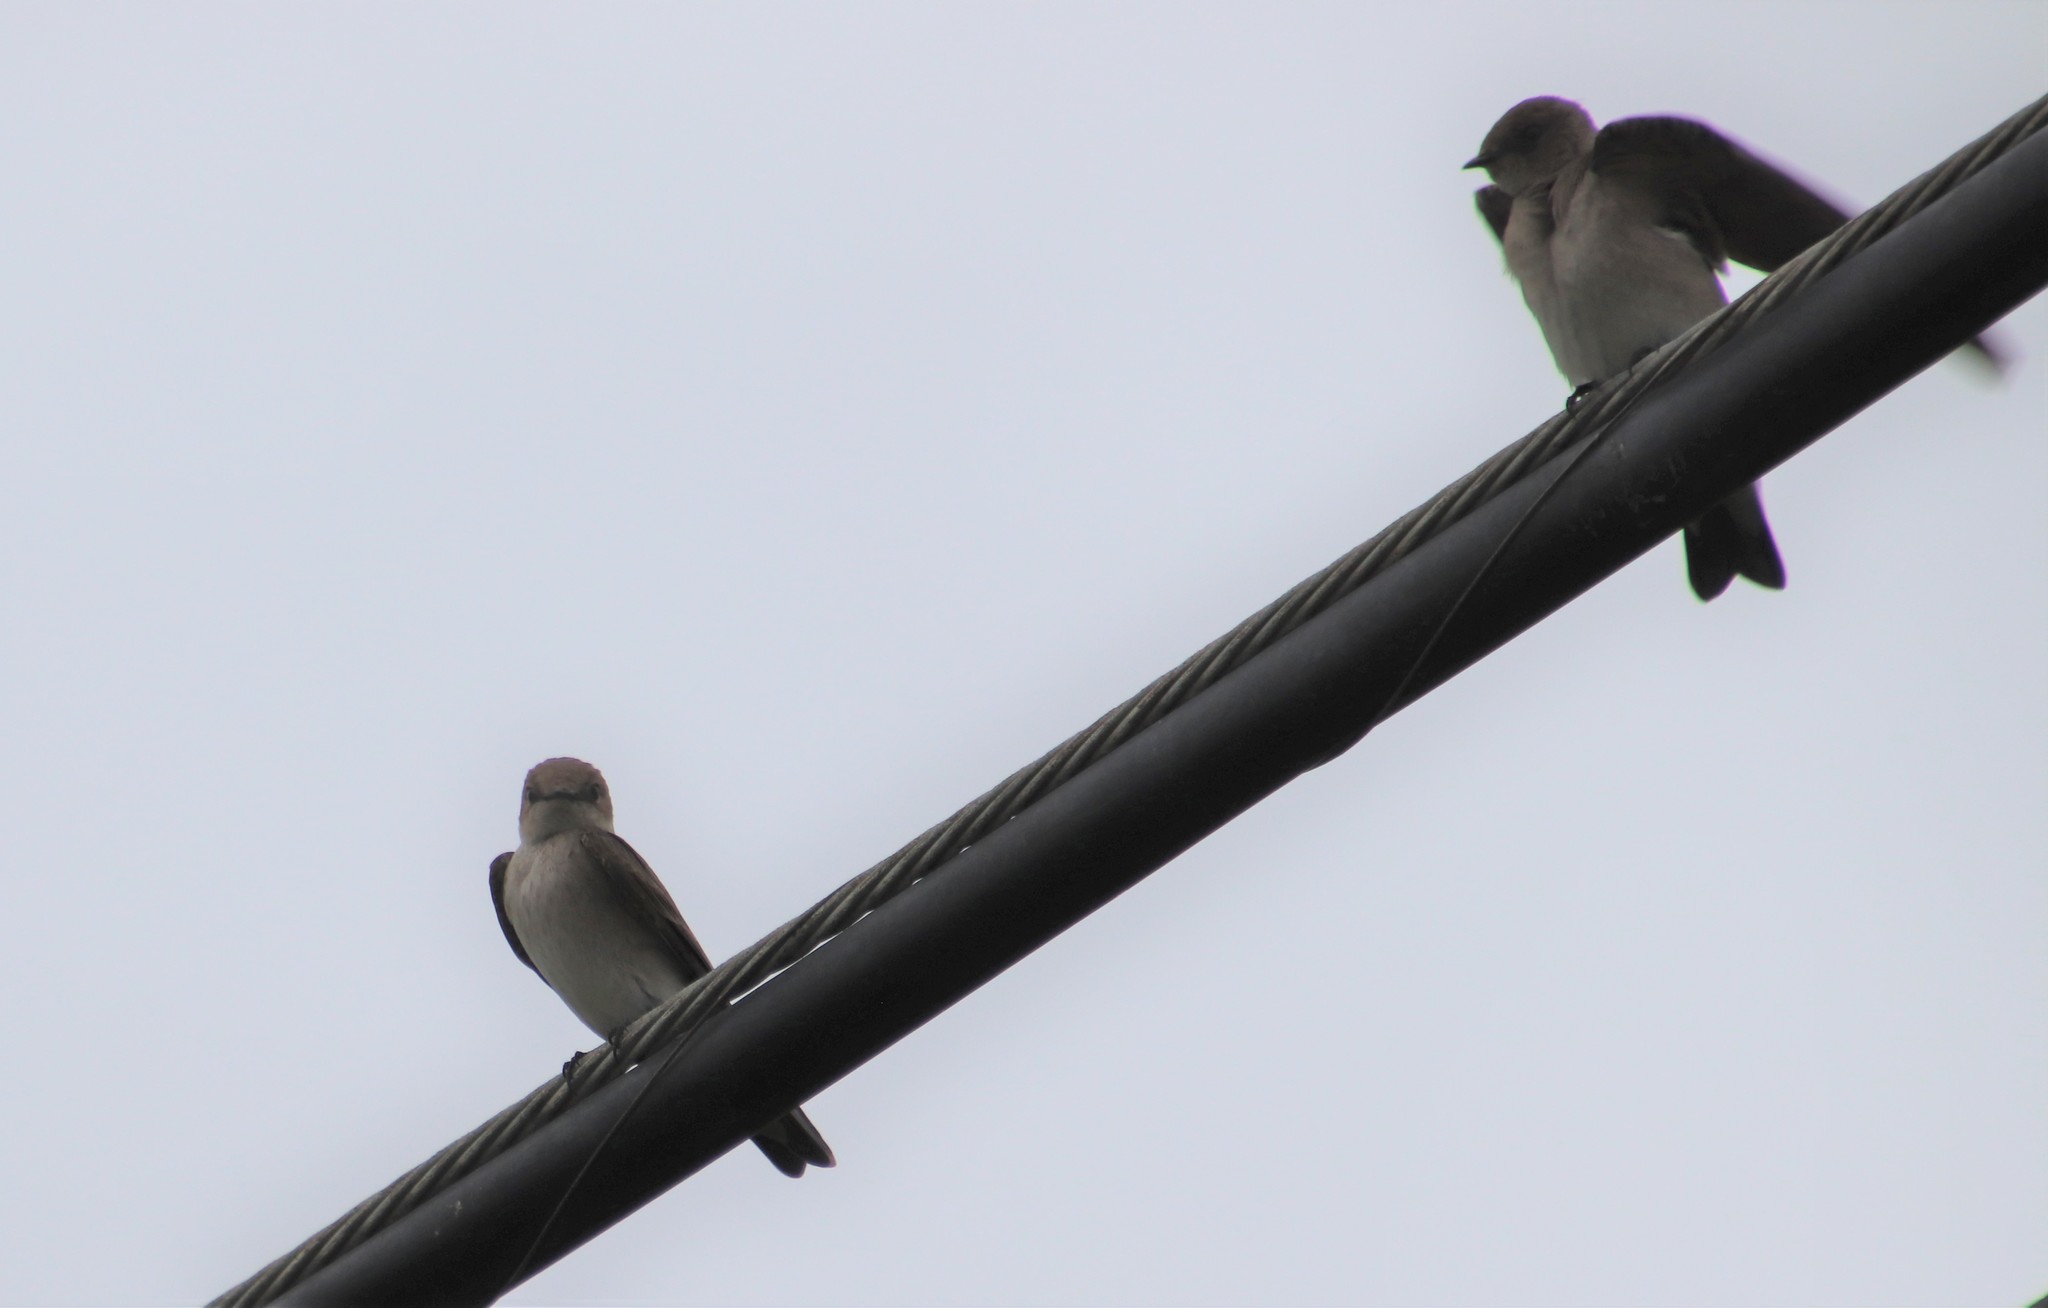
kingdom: Animalia
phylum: Chordata
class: Aves
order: Passeriformes
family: Hirundinidae
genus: Stelgidopteryx
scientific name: Stelgidopteryx serripennis
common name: Northern rough-winged swallow
